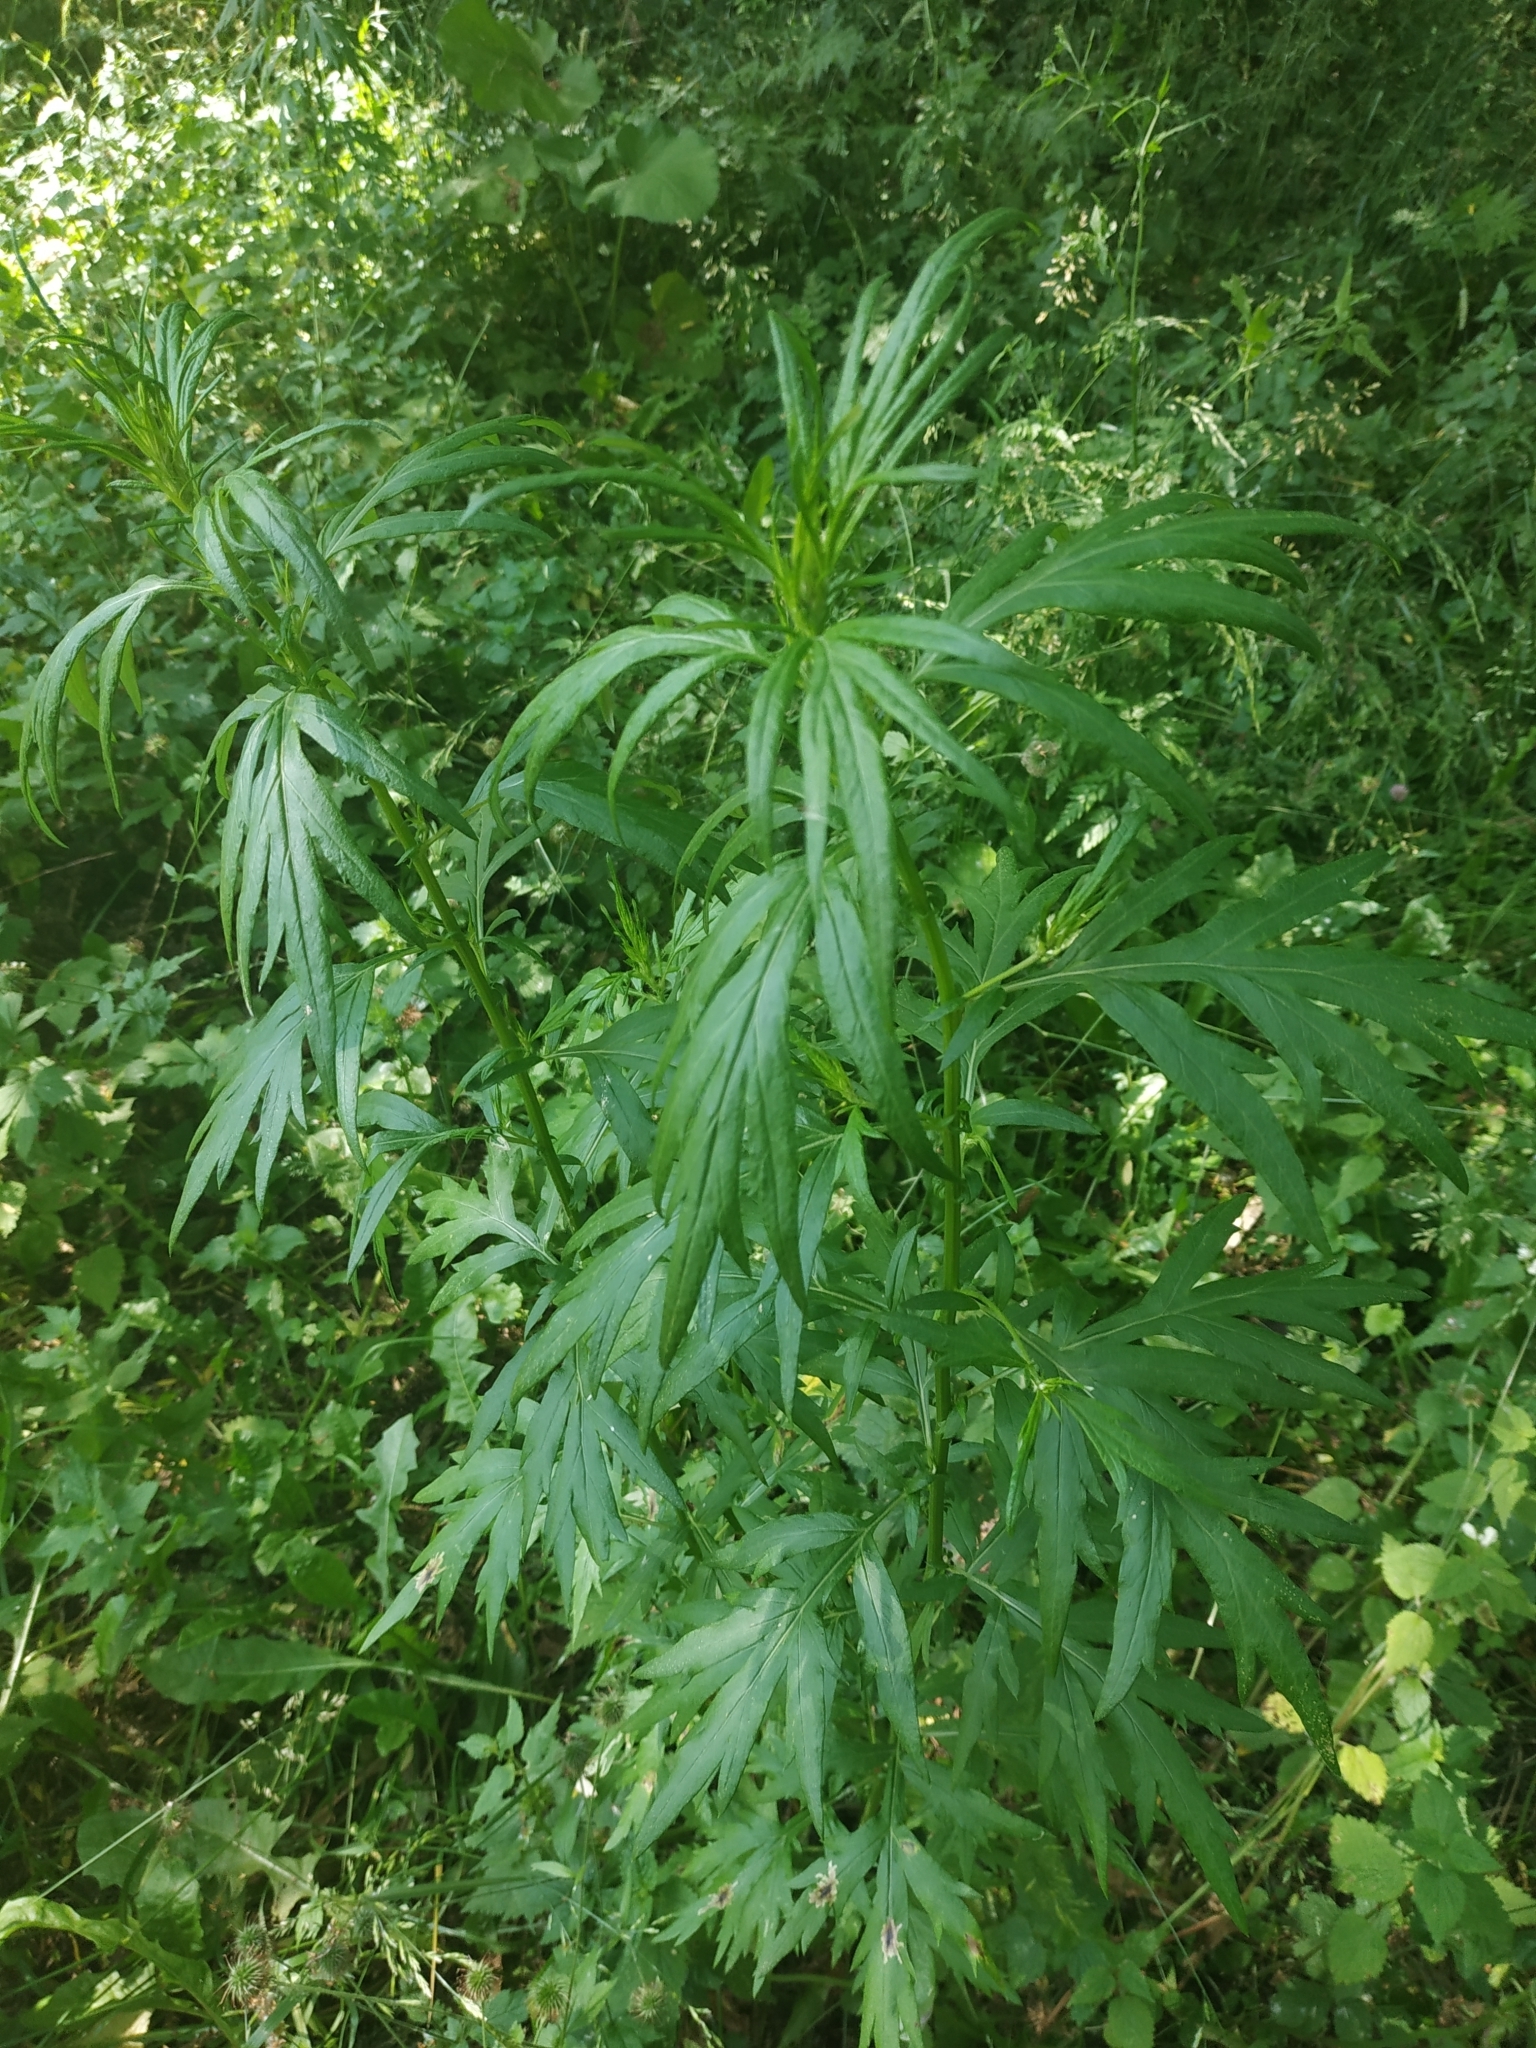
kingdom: Plantae
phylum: Tracheophyta
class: Magnoliopsida
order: Asterales
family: Asteraceae
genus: Artemisia
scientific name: Artemisia vulgaris
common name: Mugwort
